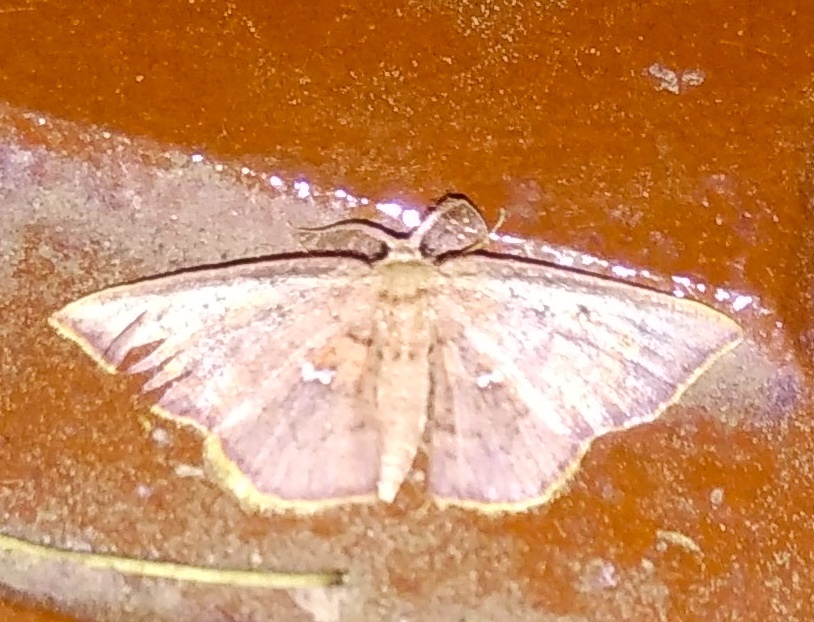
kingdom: Animalia
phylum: Arthropoda
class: Insecta
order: Lepidoptera
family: Geometridae
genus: Chrysocraspeda
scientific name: Chrysocraspeda abhadraca
